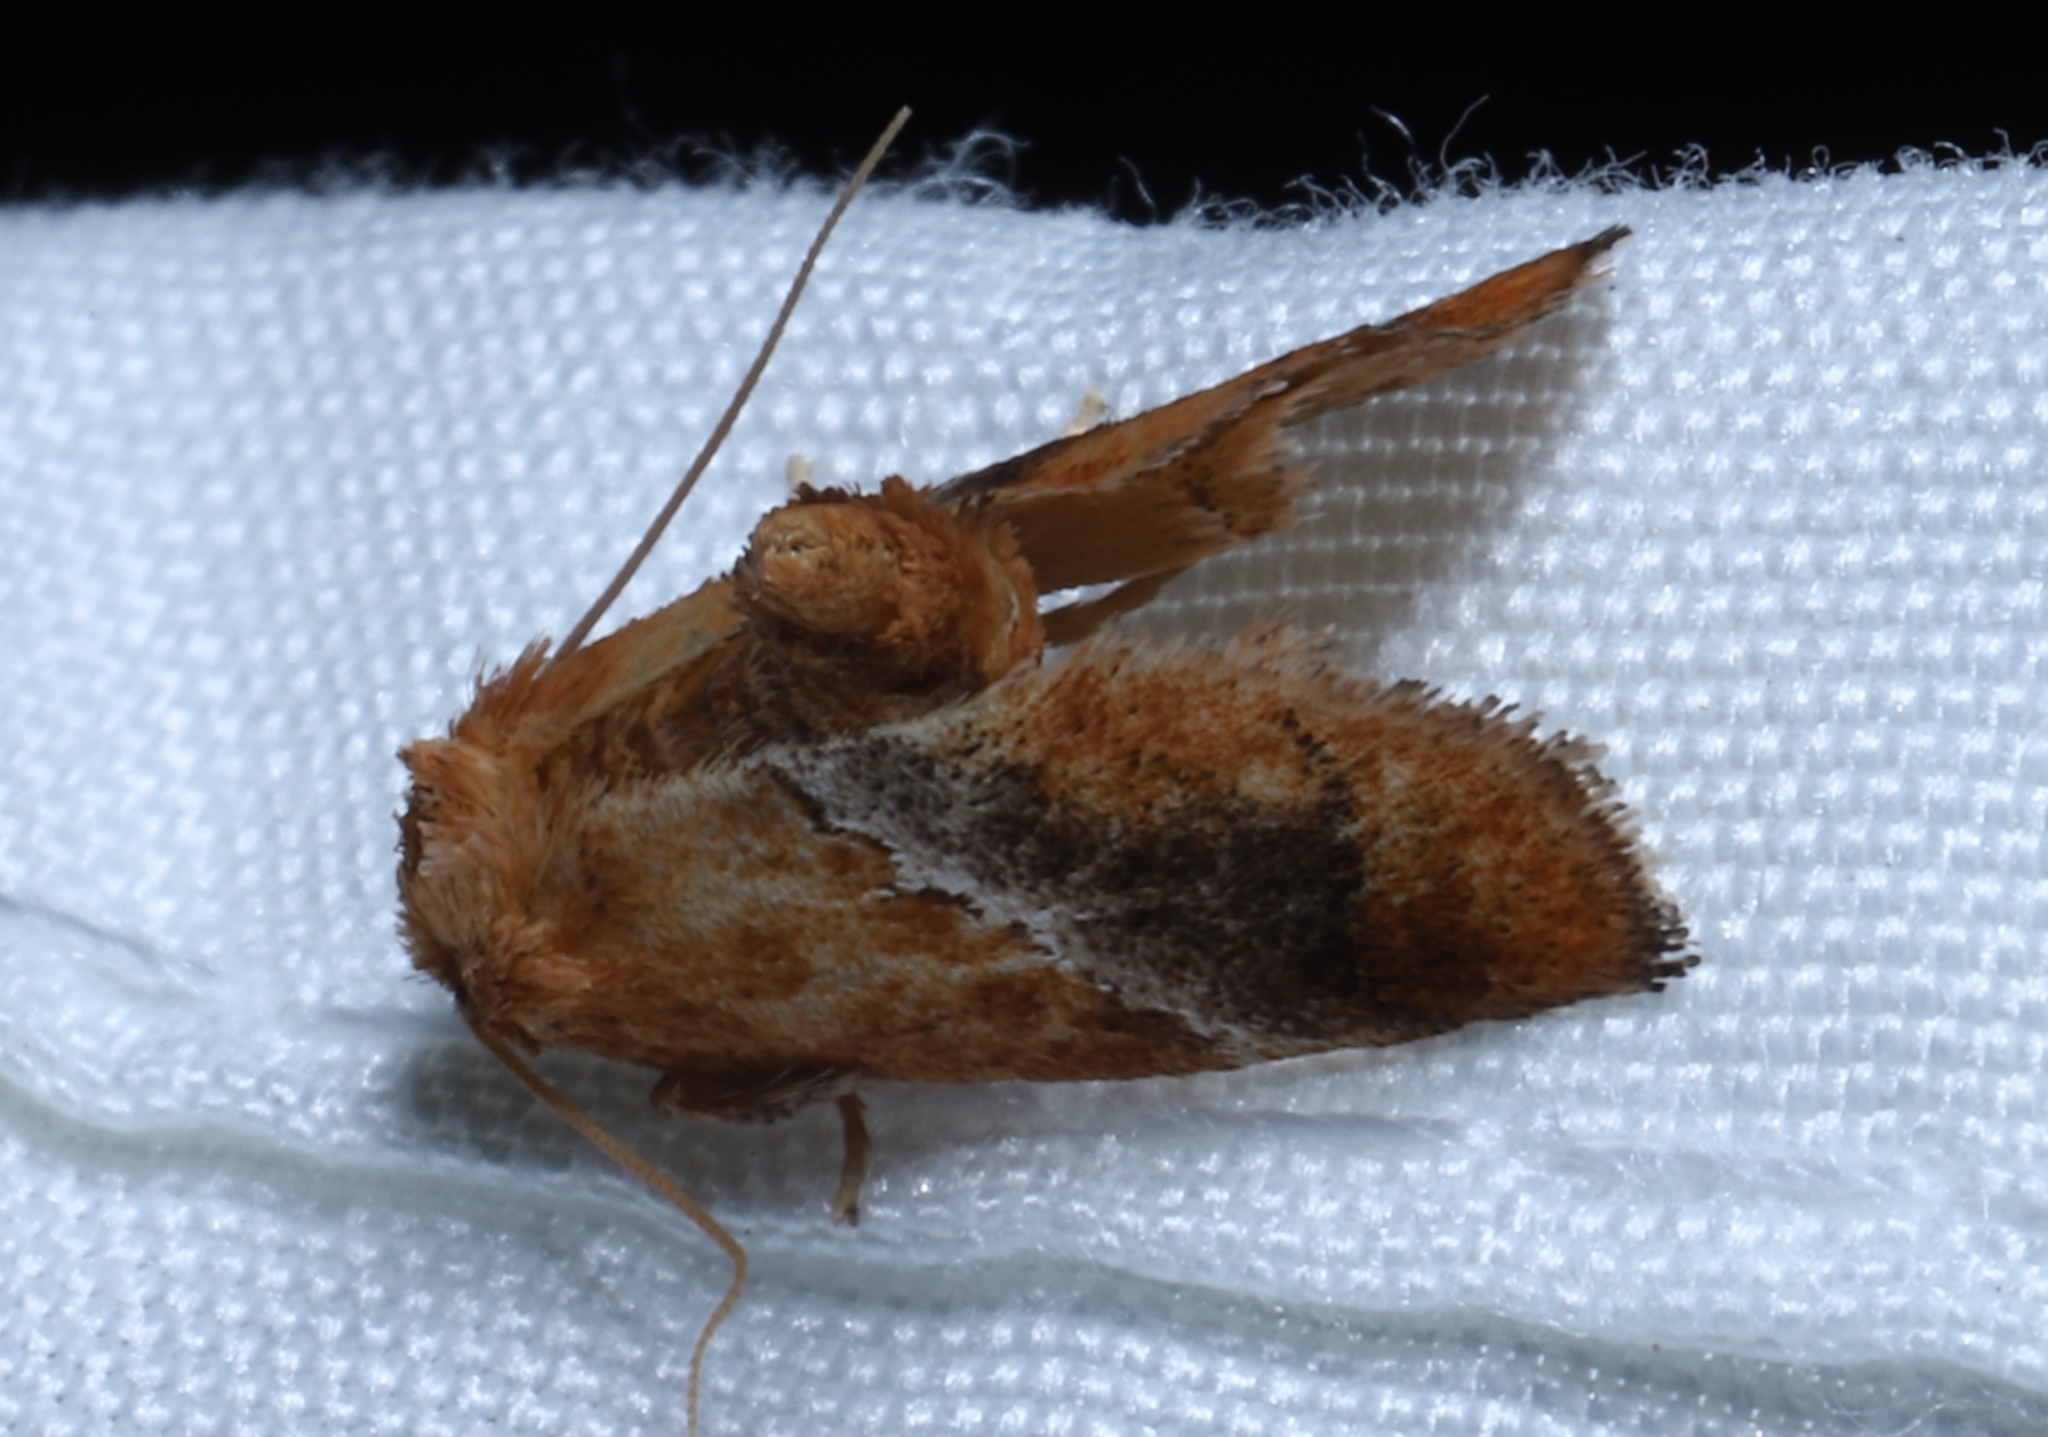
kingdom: Animalia
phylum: Arthropoda
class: Insecta
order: Lepidoptera
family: Limacodidae
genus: Lithacodes
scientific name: Lithacodes fasciola
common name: Yellow-shouldered slug moth
